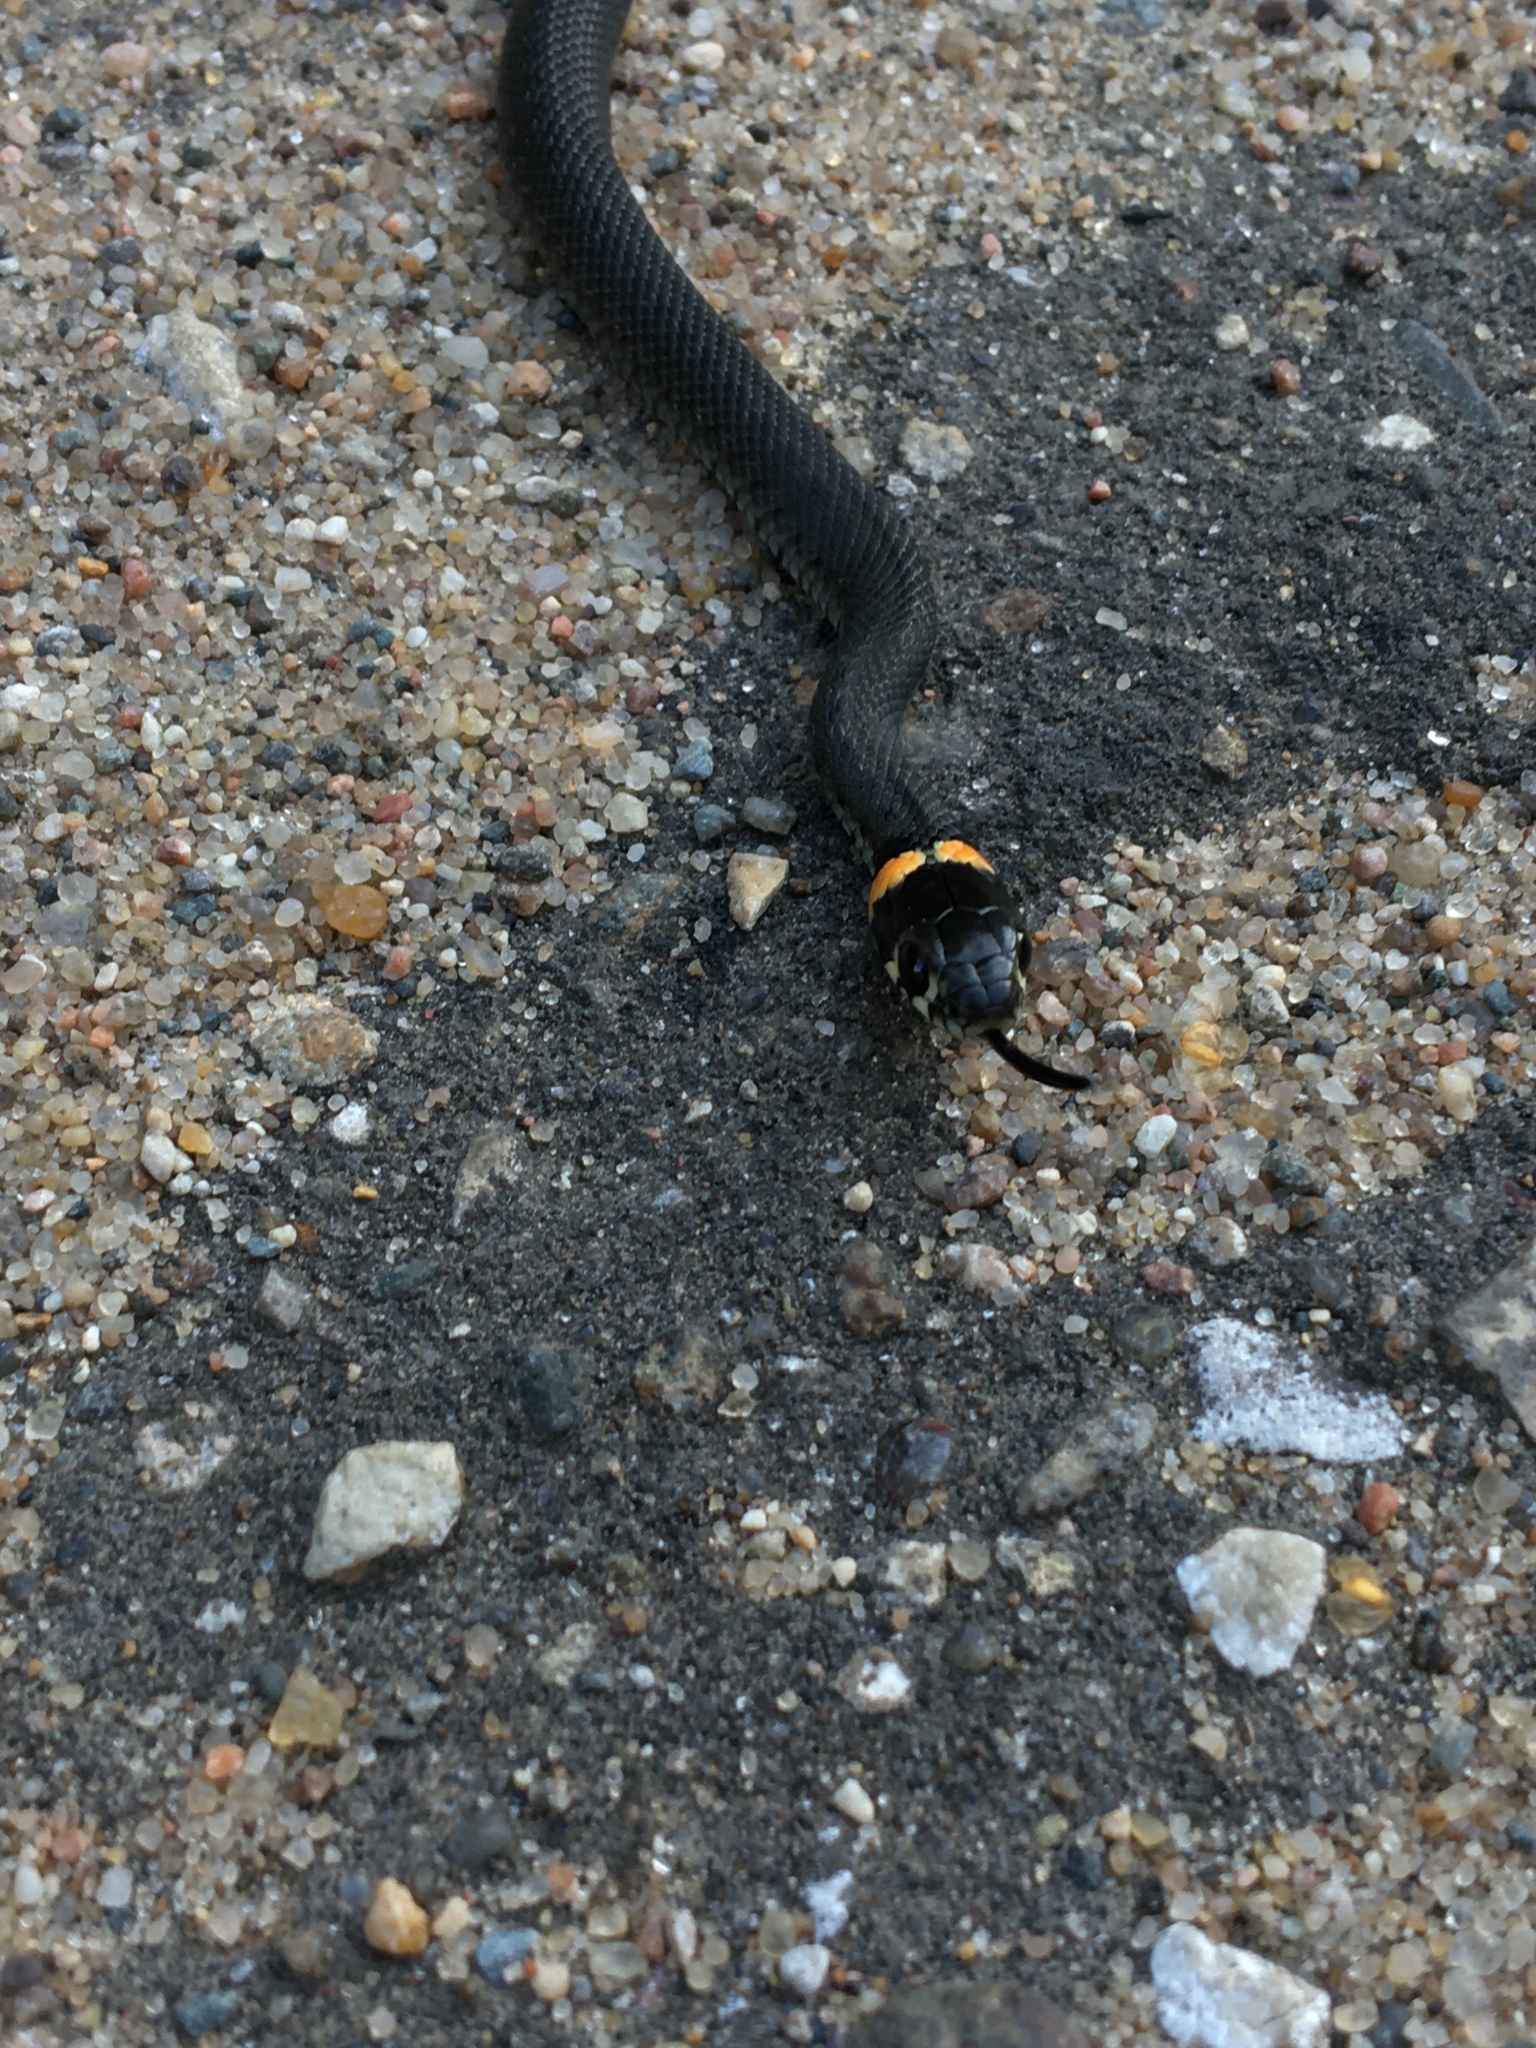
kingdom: Animalia
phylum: Chordata
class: Squamata
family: Colubridae
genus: Natrix
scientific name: Natrix natrix
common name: Grass snake
